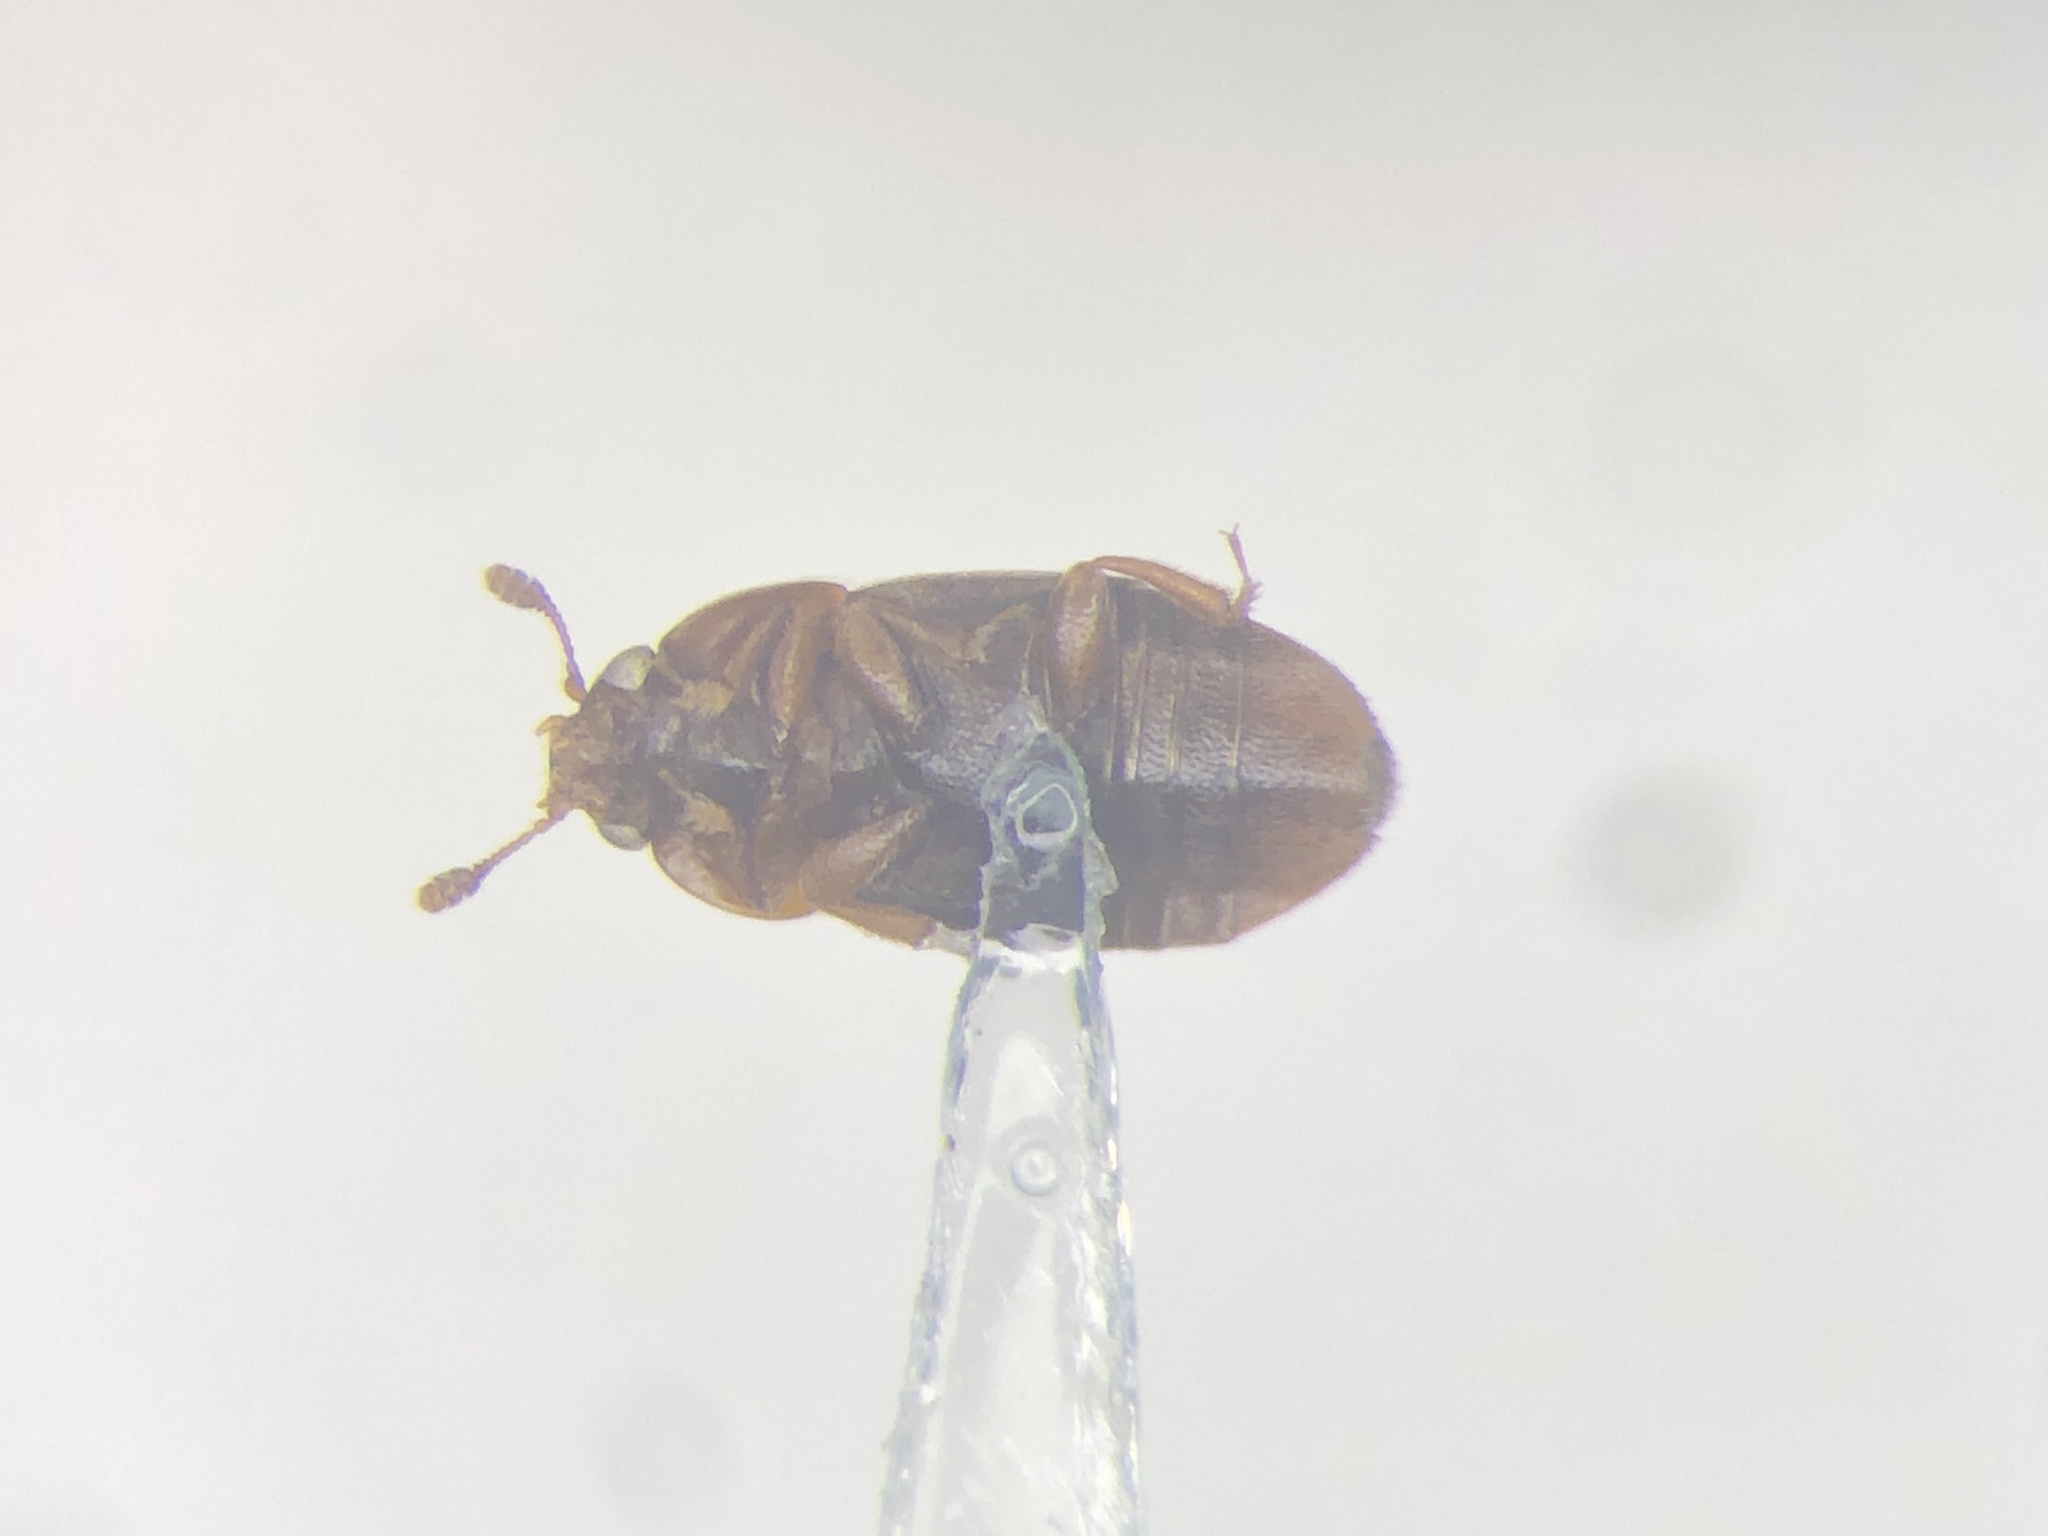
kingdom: Animalia
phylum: Arthropoda
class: Insecta
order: Coleoptera
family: Nitidulidae
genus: Colopterus
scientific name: Colopterus truncatus
